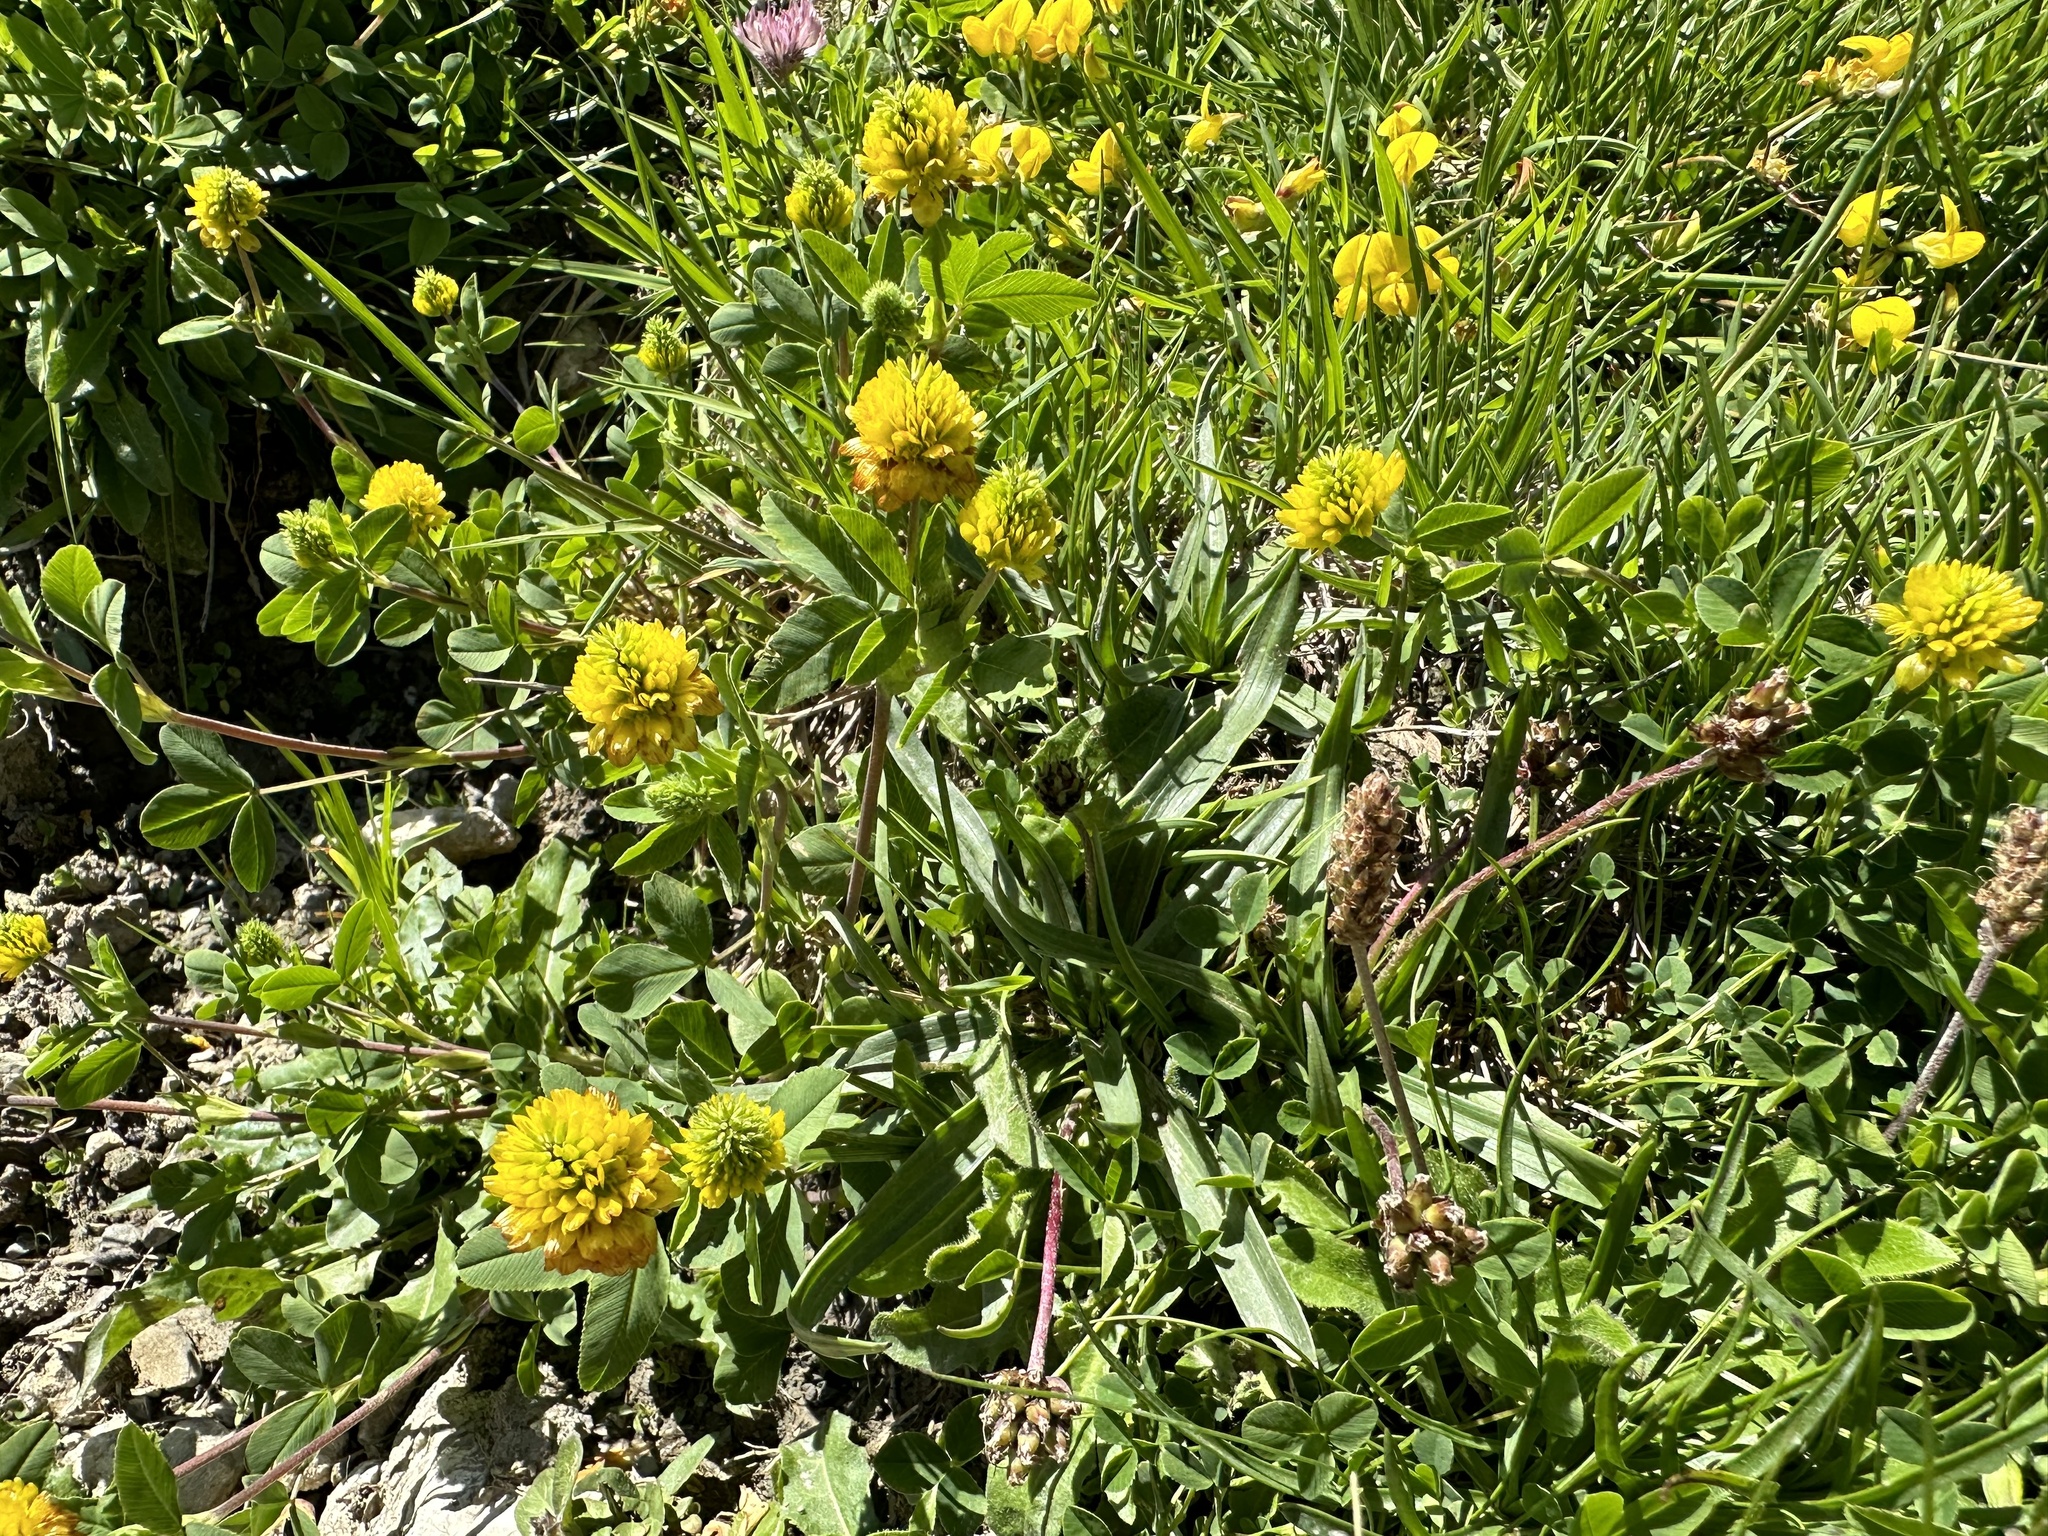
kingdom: Plantae
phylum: Tracheophyta
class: Magnoliopsida
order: Fabales
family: Fabaceae
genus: Trifolium
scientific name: Trifolium badium
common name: Brown clover
